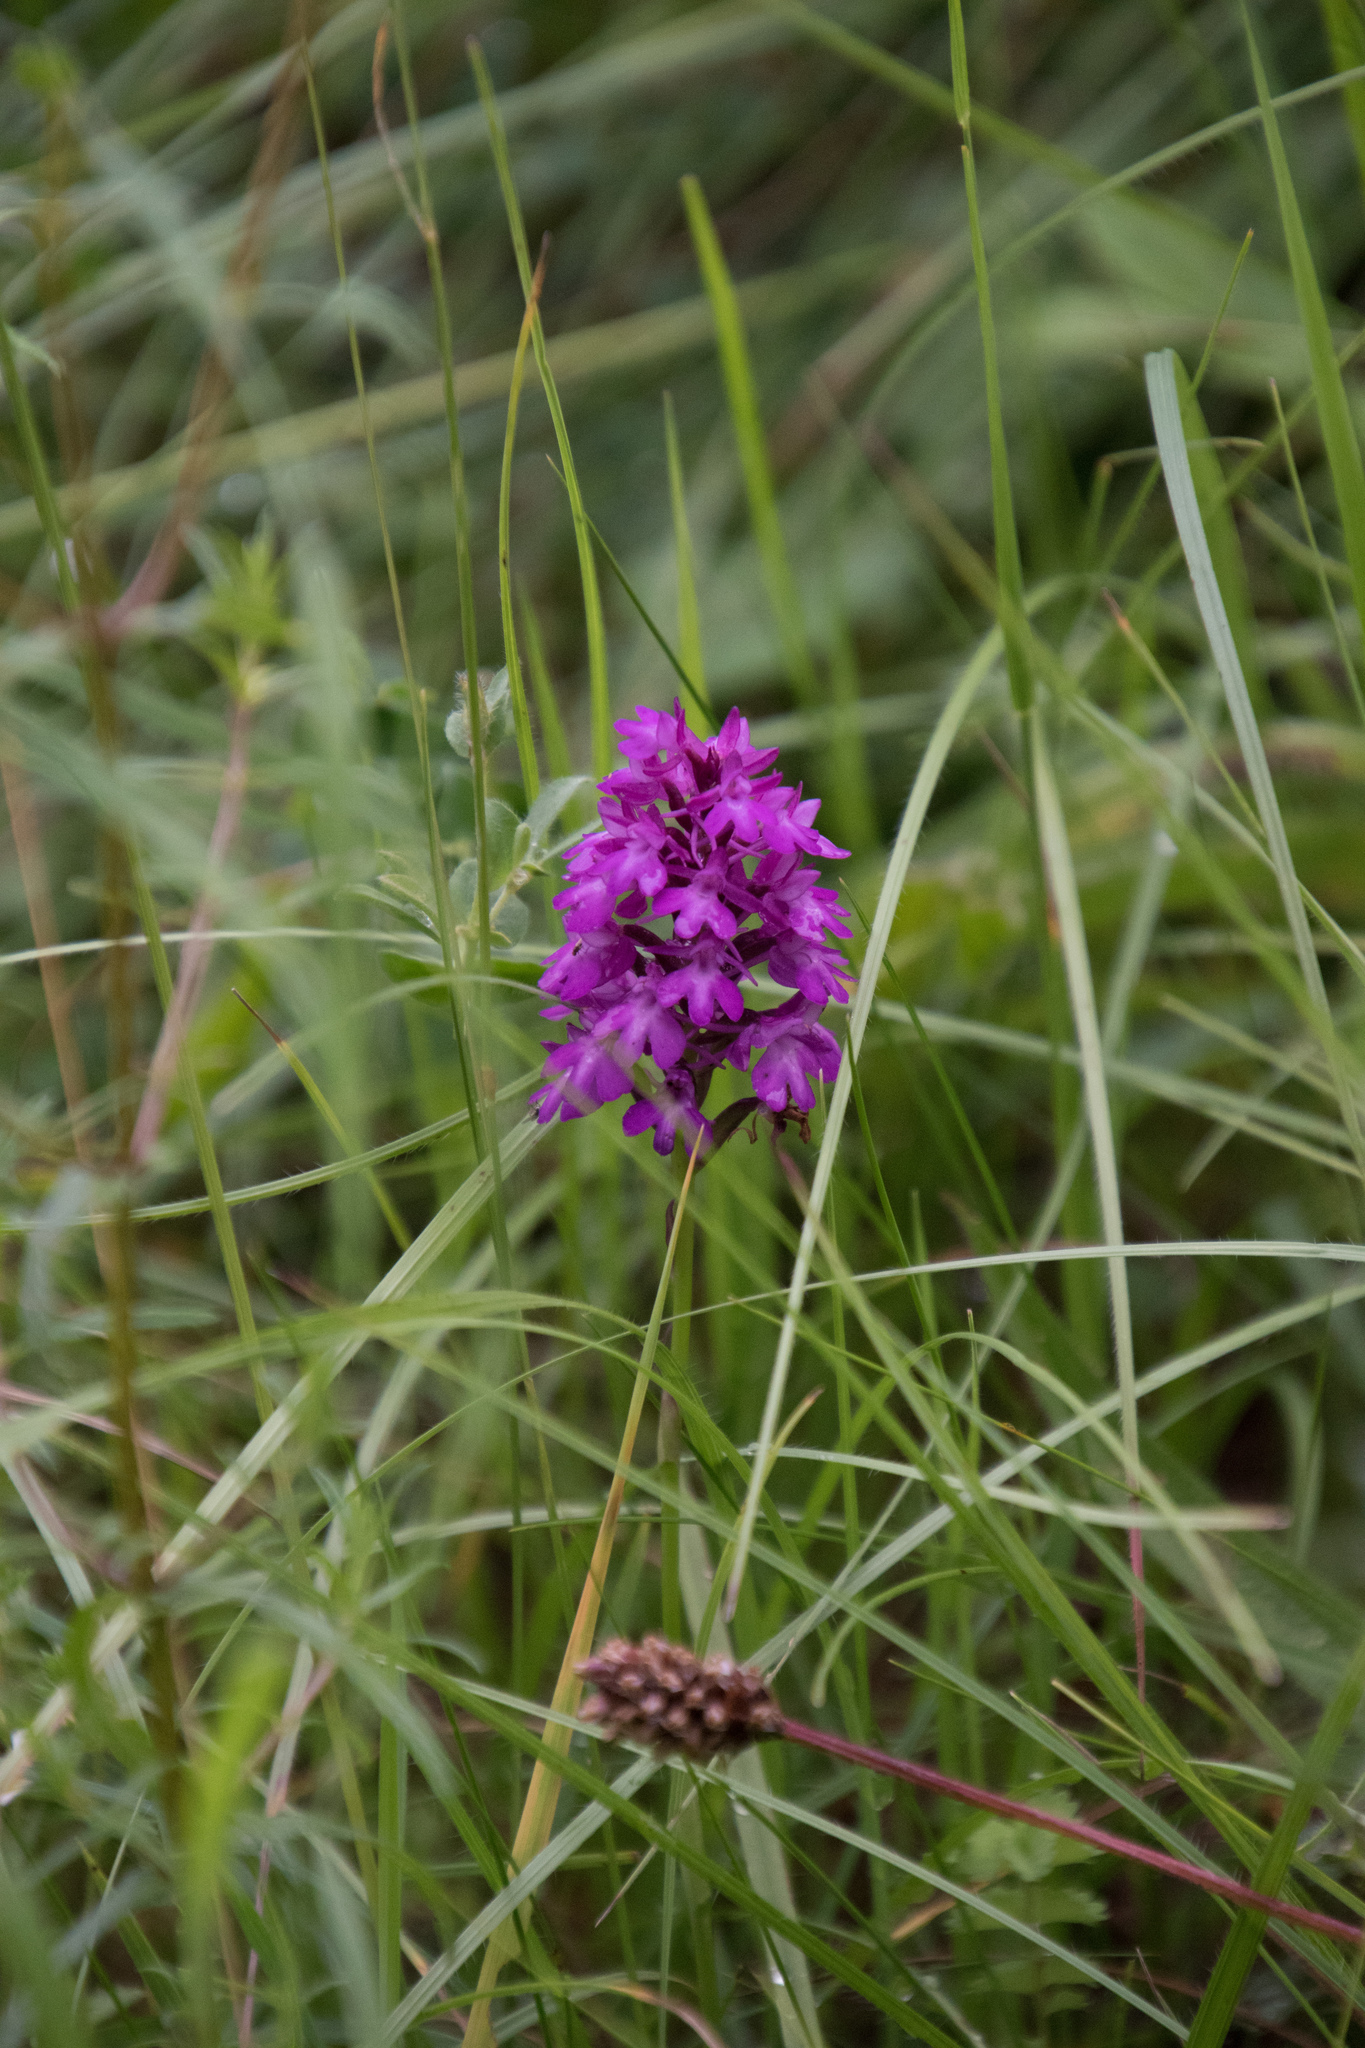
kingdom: Plantae
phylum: Tracheophyta
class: Liliopsida
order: Asparagales
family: Orchidaceae
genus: Anacamptis
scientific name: Anacamptis pyramidalis
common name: Pyramidal orchid
